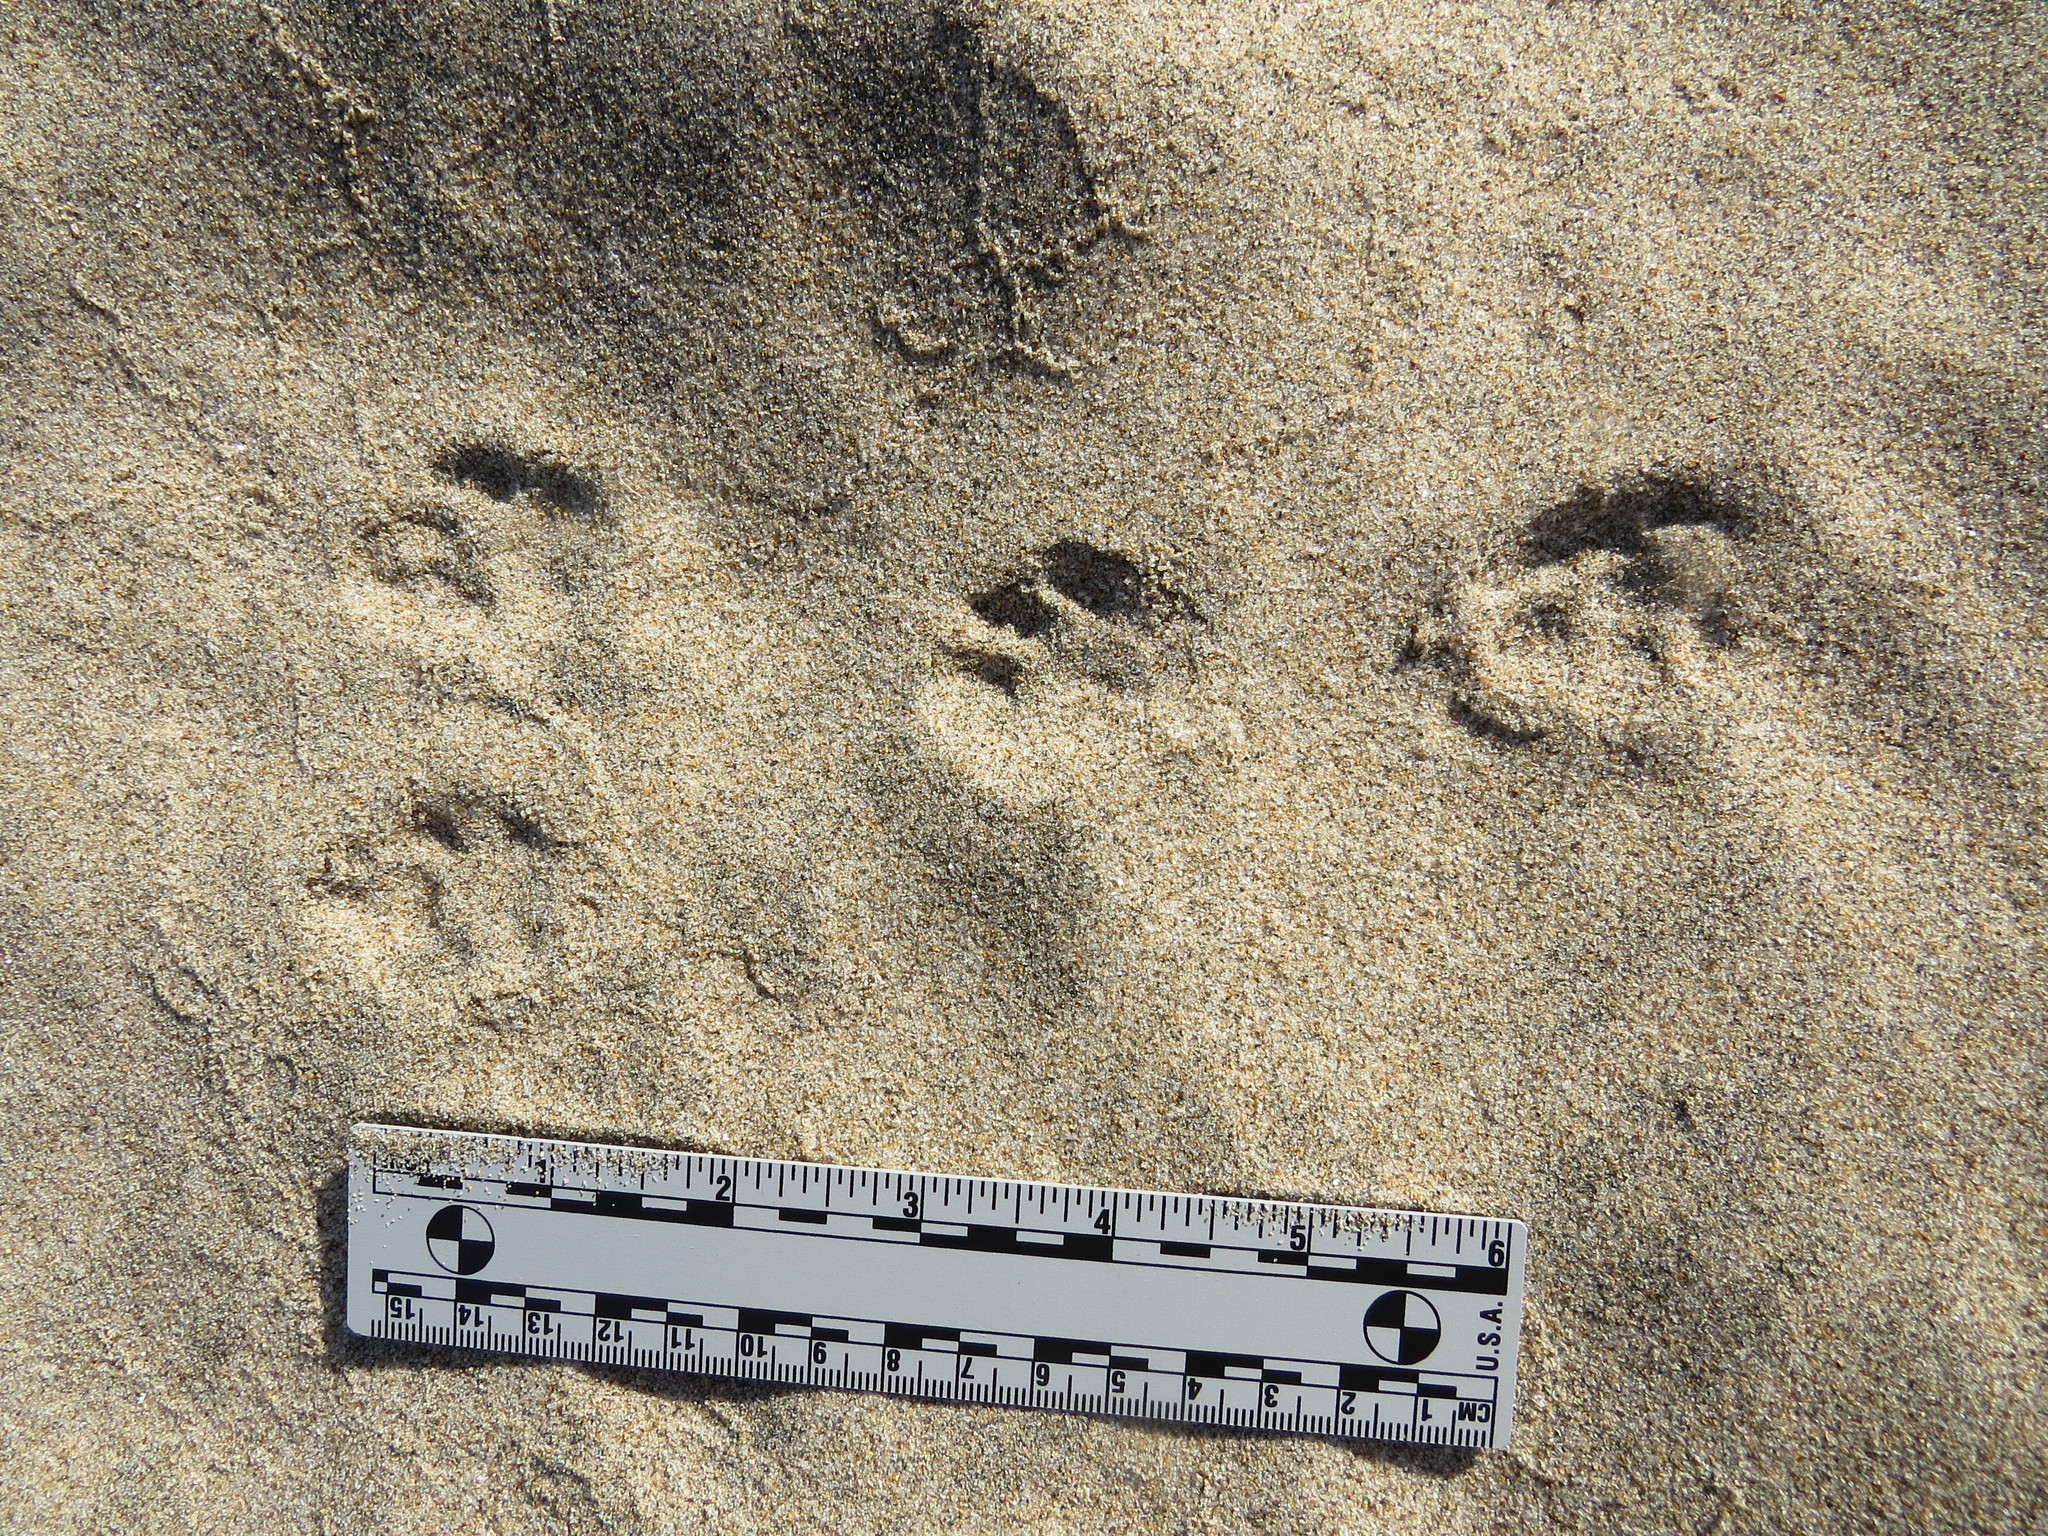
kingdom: Animalia
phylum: Chordata
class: Mammalia
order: Lagomorpha
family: Leporidae
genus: Sylvilagus
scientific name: Sylvilagus bachmani
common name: Brush rabbit
